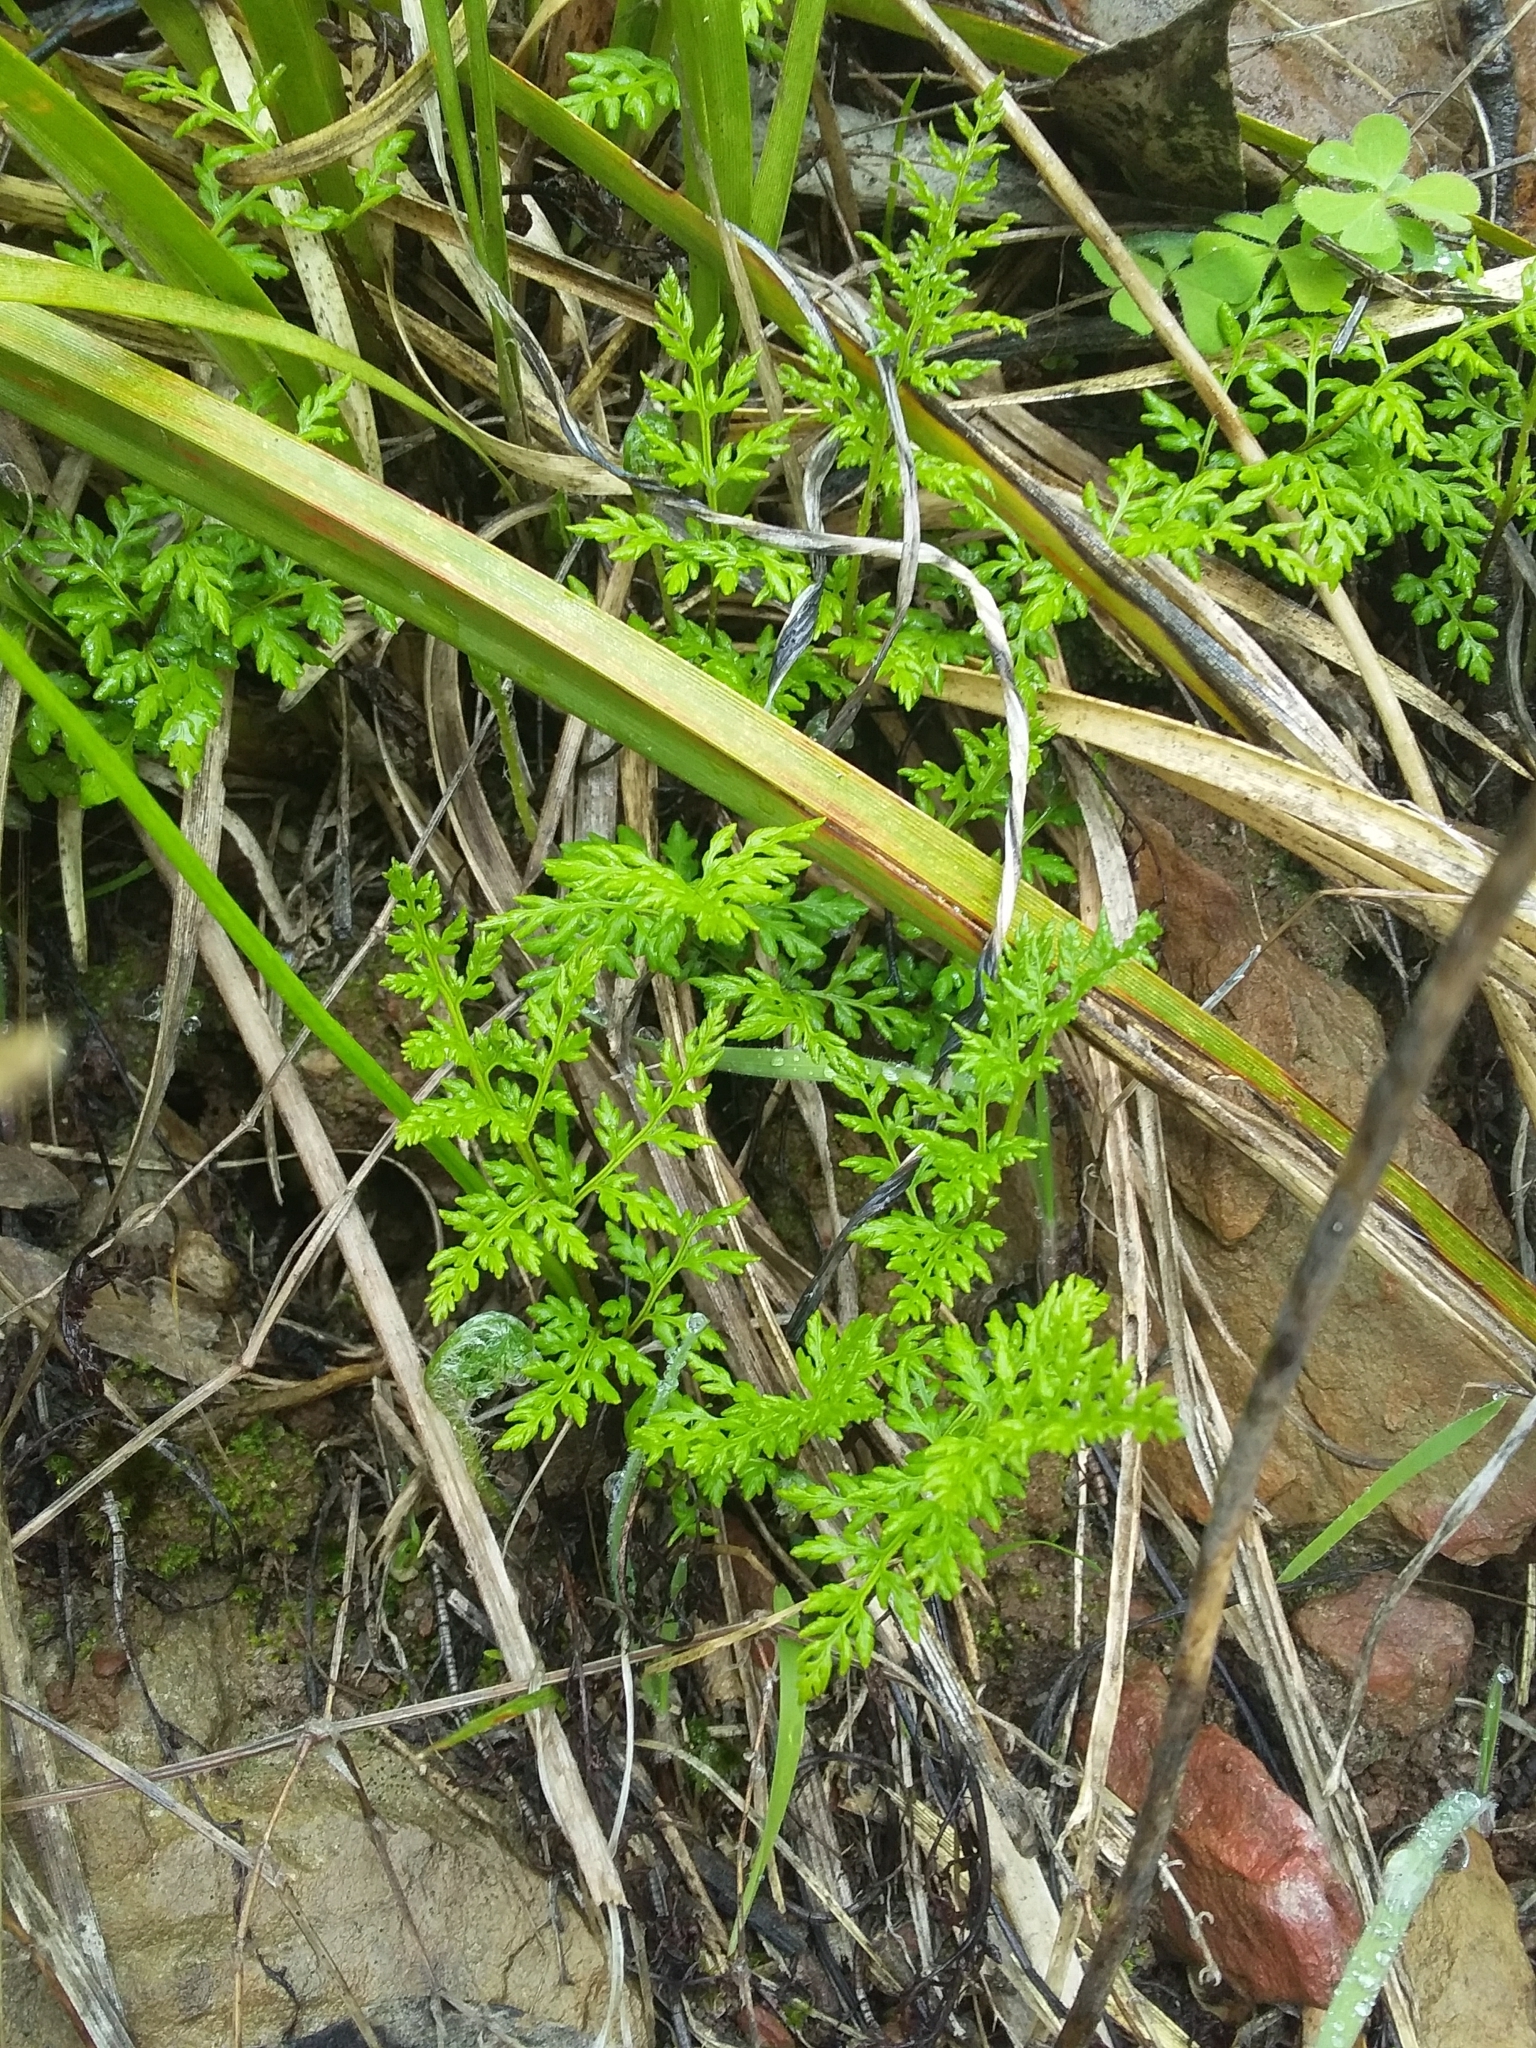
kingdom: Plantae
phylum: Tracheophyta
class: Polypodiopsida
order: Polypodiales
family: Pteridaceae
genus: Cheilanthes
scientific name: Cheilanthes austrotenuifolia
